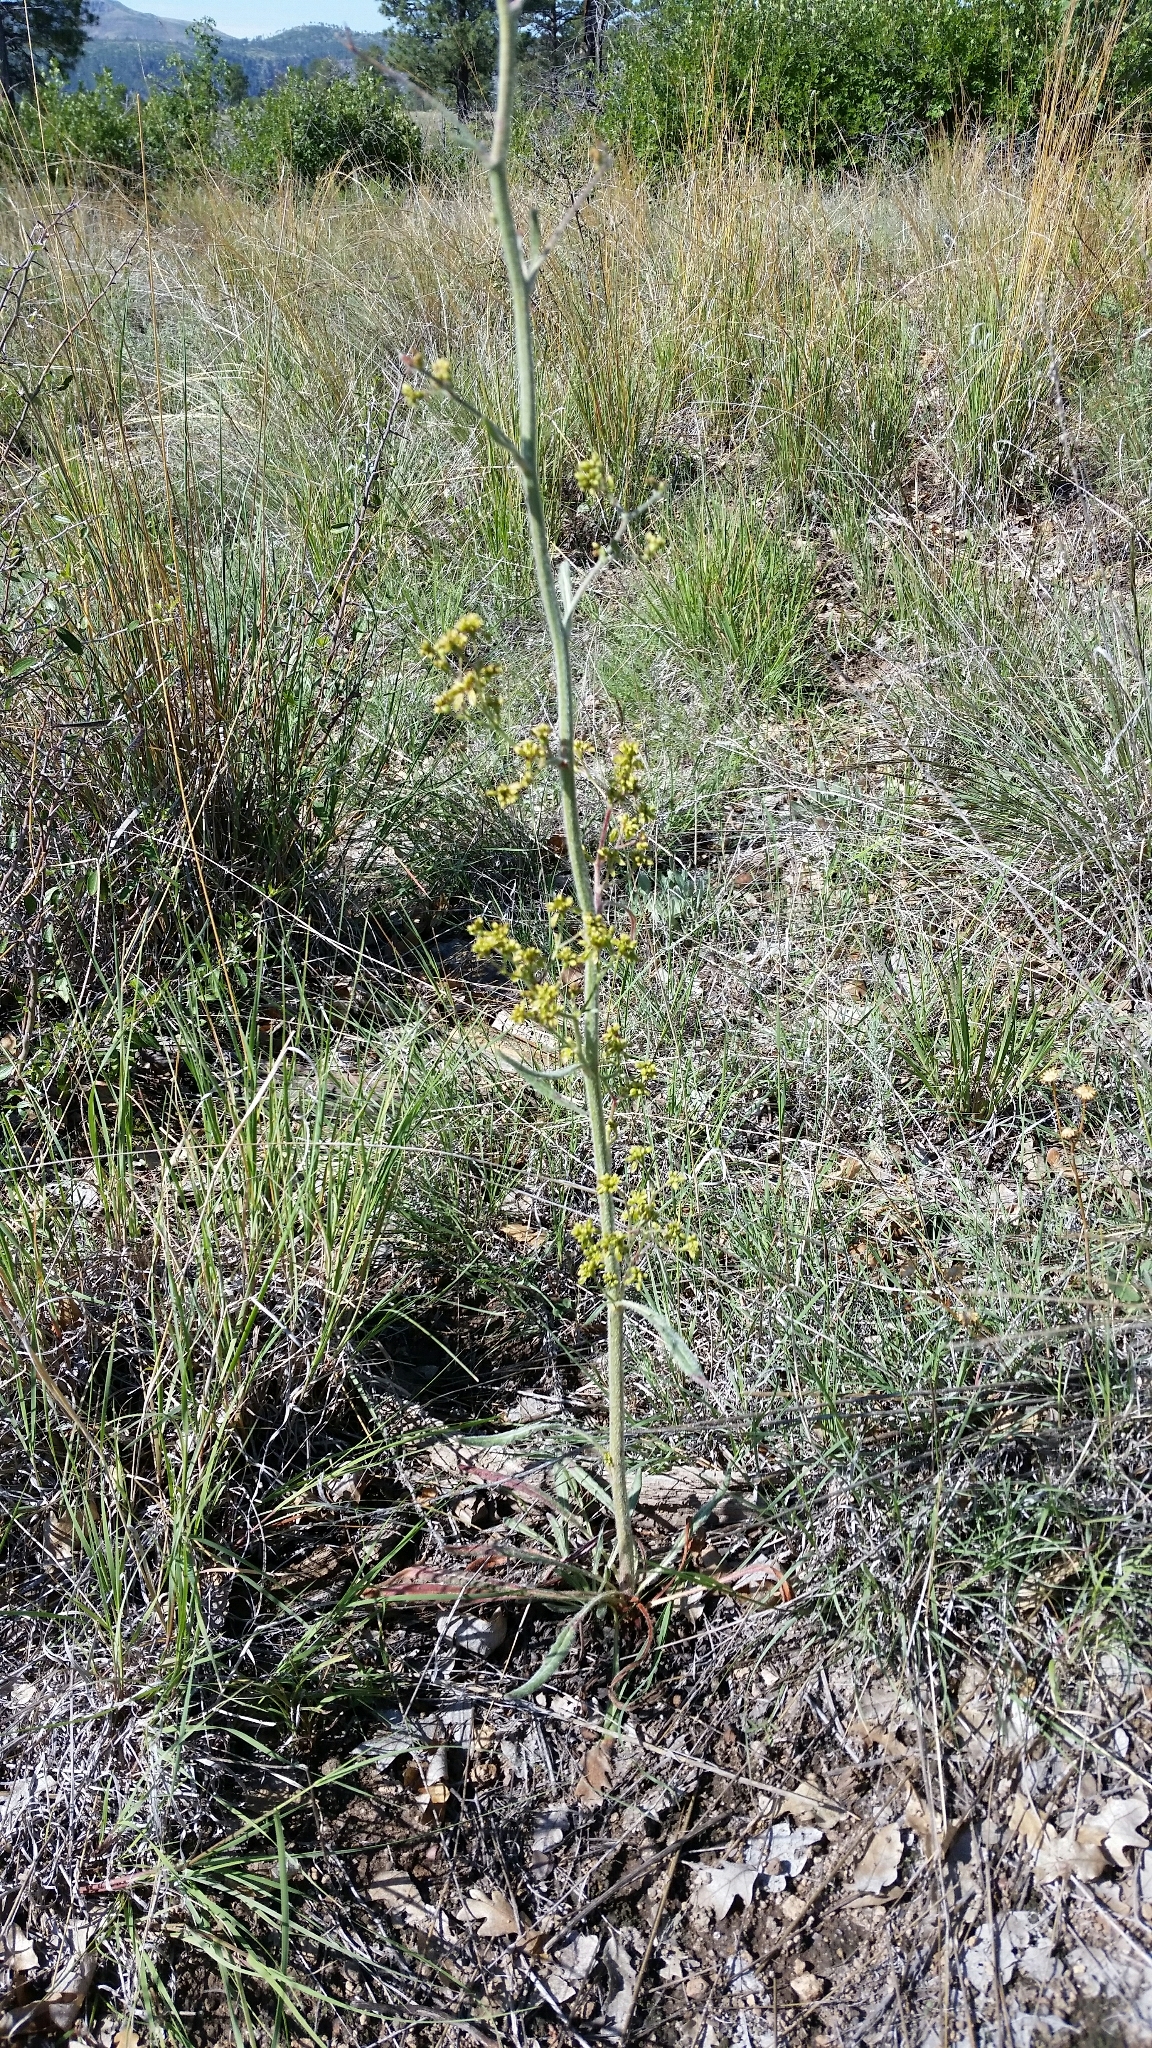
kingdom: Plantae
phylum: Tracheophyta
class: Magnoliopsida
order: Caryophyllales
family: Polygonaceae
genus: Eriogonum
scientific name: Eriogonum alatum
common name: Winged eriogonum
